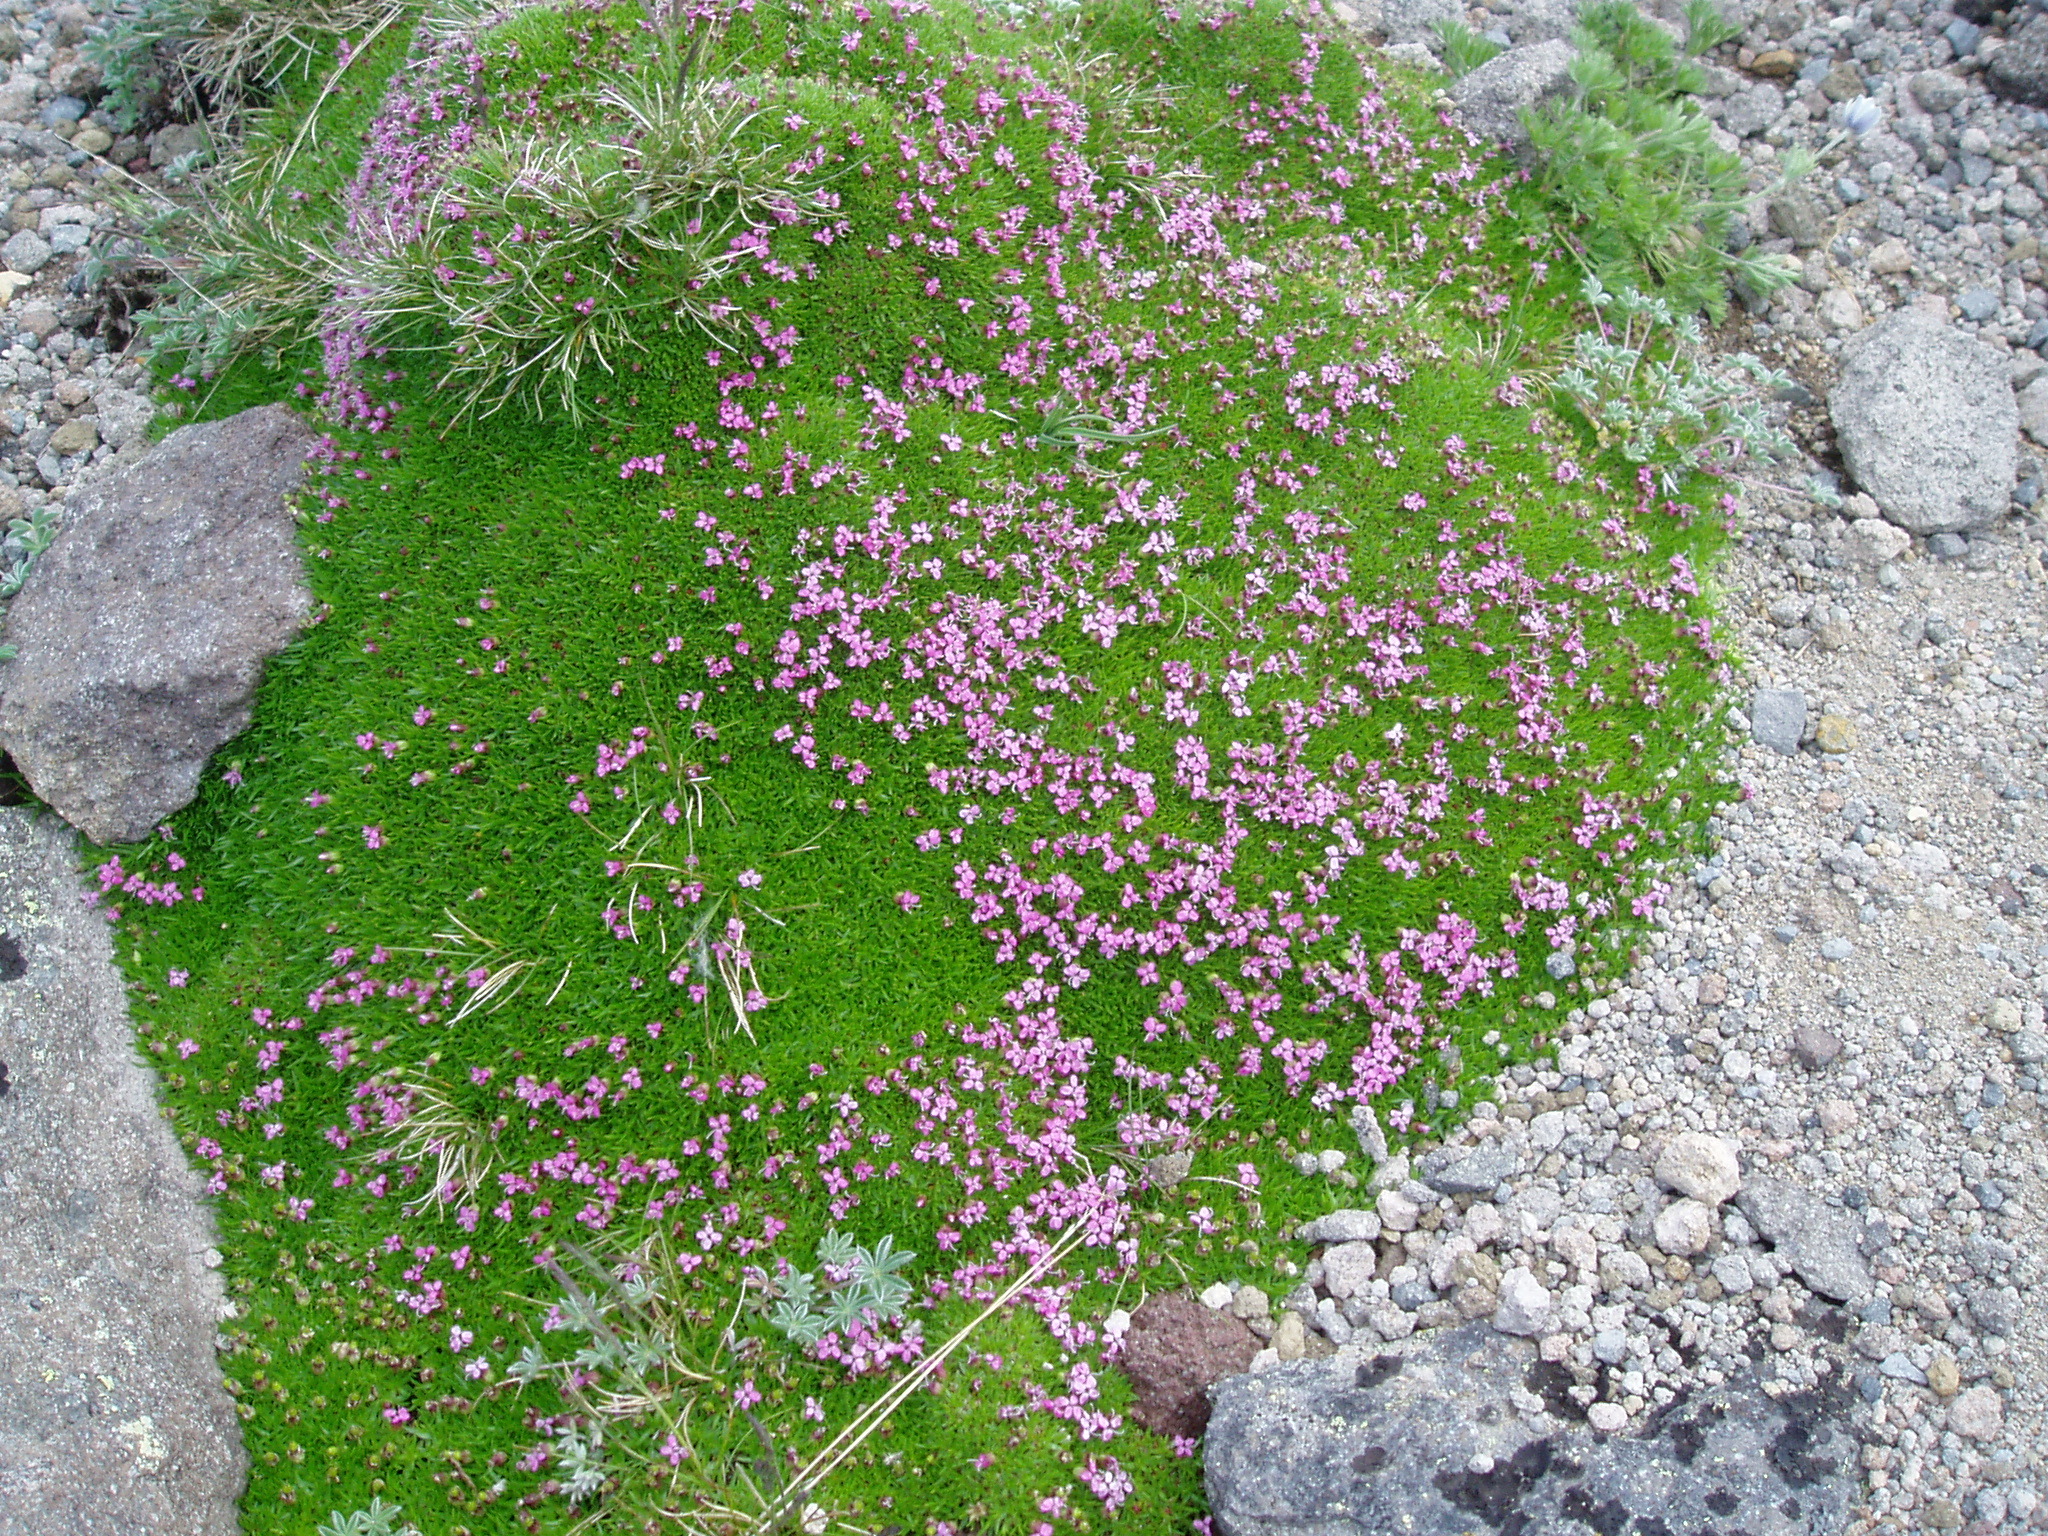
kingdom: Plantae
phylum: Tracheophyta
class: Magnoliopsida
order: Caryophyllales
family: Caryophyllaceae
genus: Silene
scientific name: Silene acaulis
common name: Moss campion
